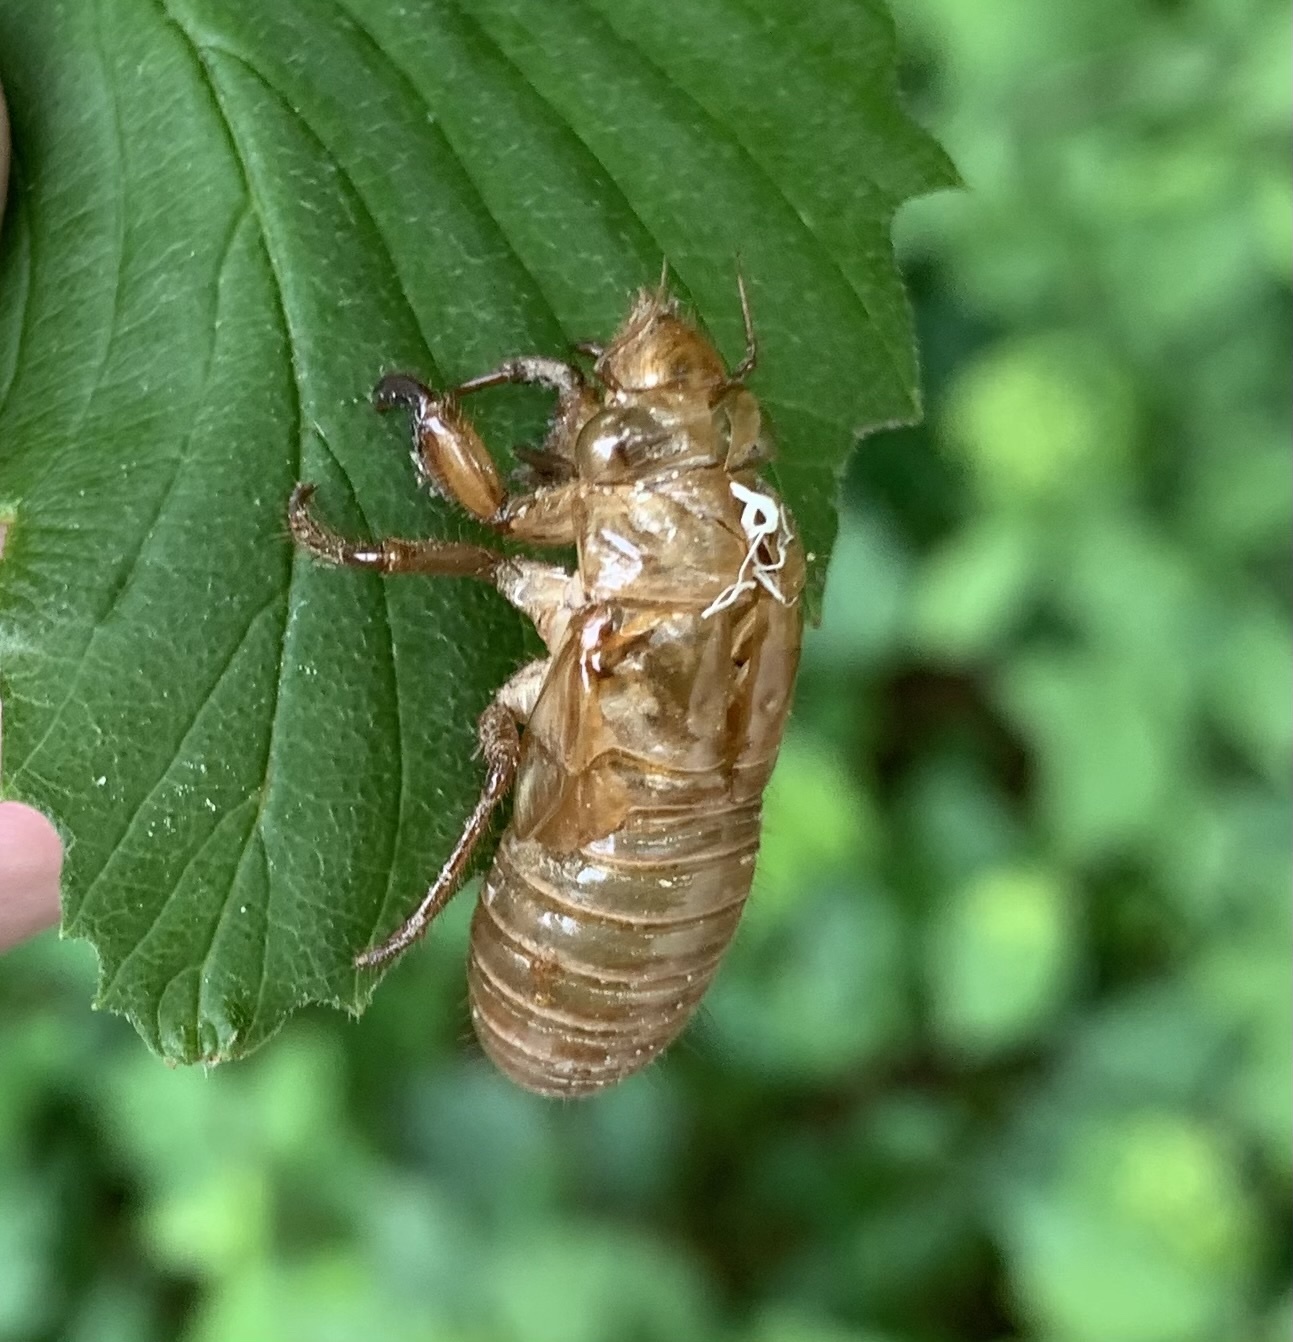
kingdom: Animalia
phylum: Arthropoda
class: Insecta
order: Hemiptera
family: Cicadidae
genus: Magicicada
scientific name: Magicicada
